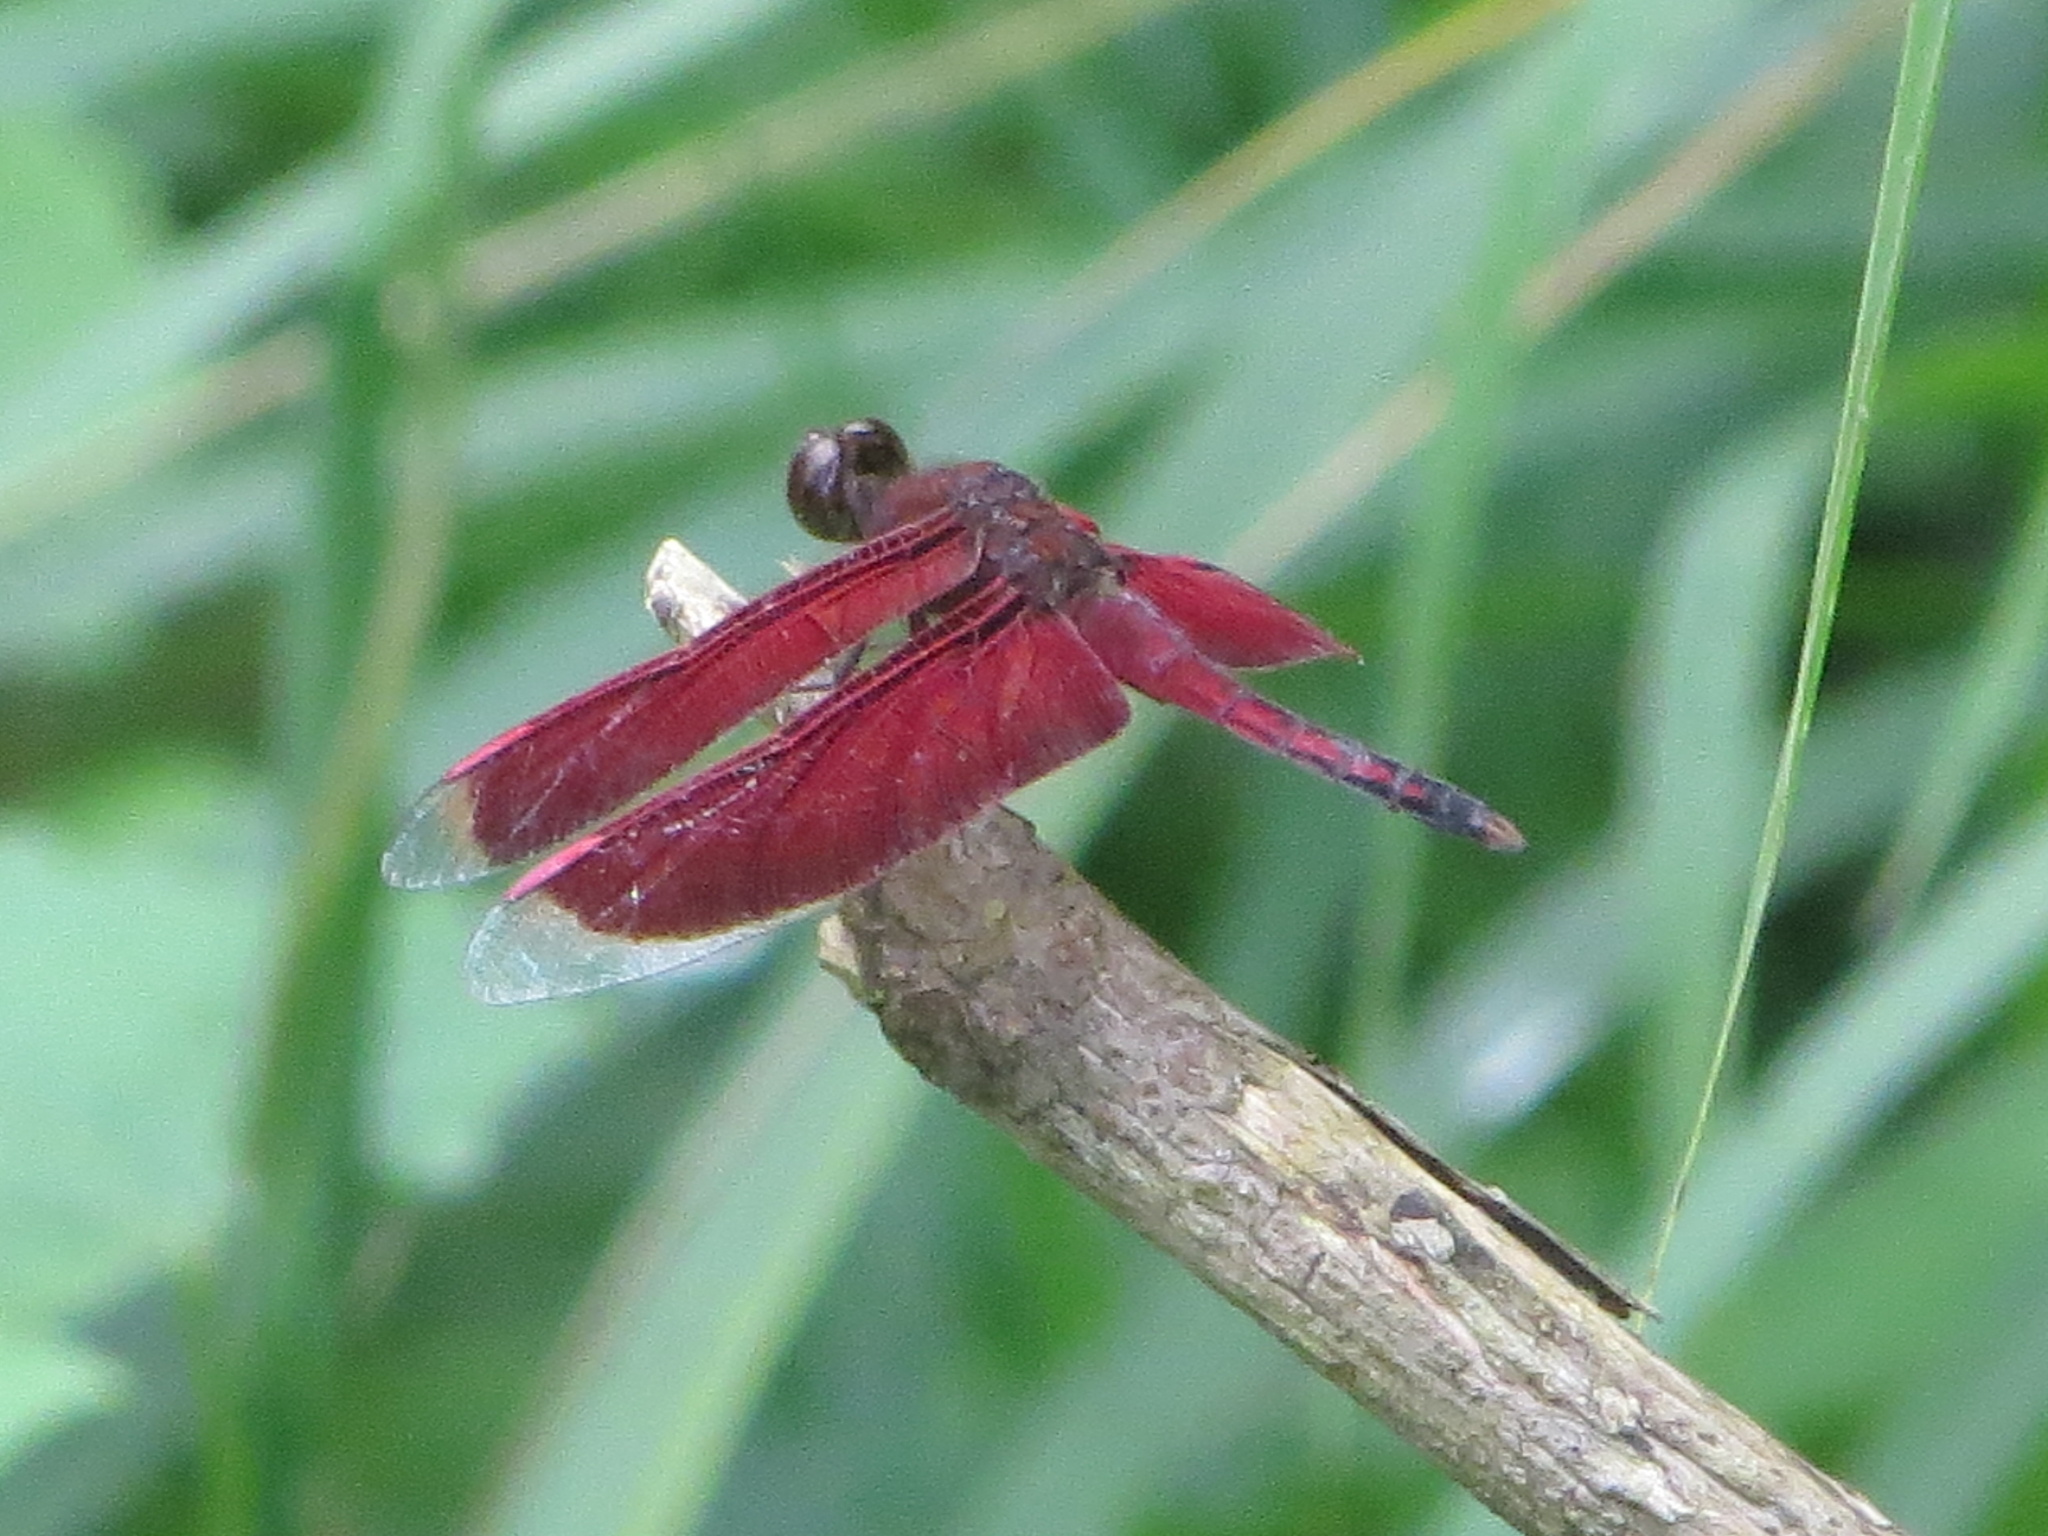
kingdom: Animalia
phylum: Arthropoda
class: Insecta
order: Odonata
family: Libellulidae
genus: Neurothemis
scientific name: Neurothemis stigmatizans
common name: Painted grasshawk
